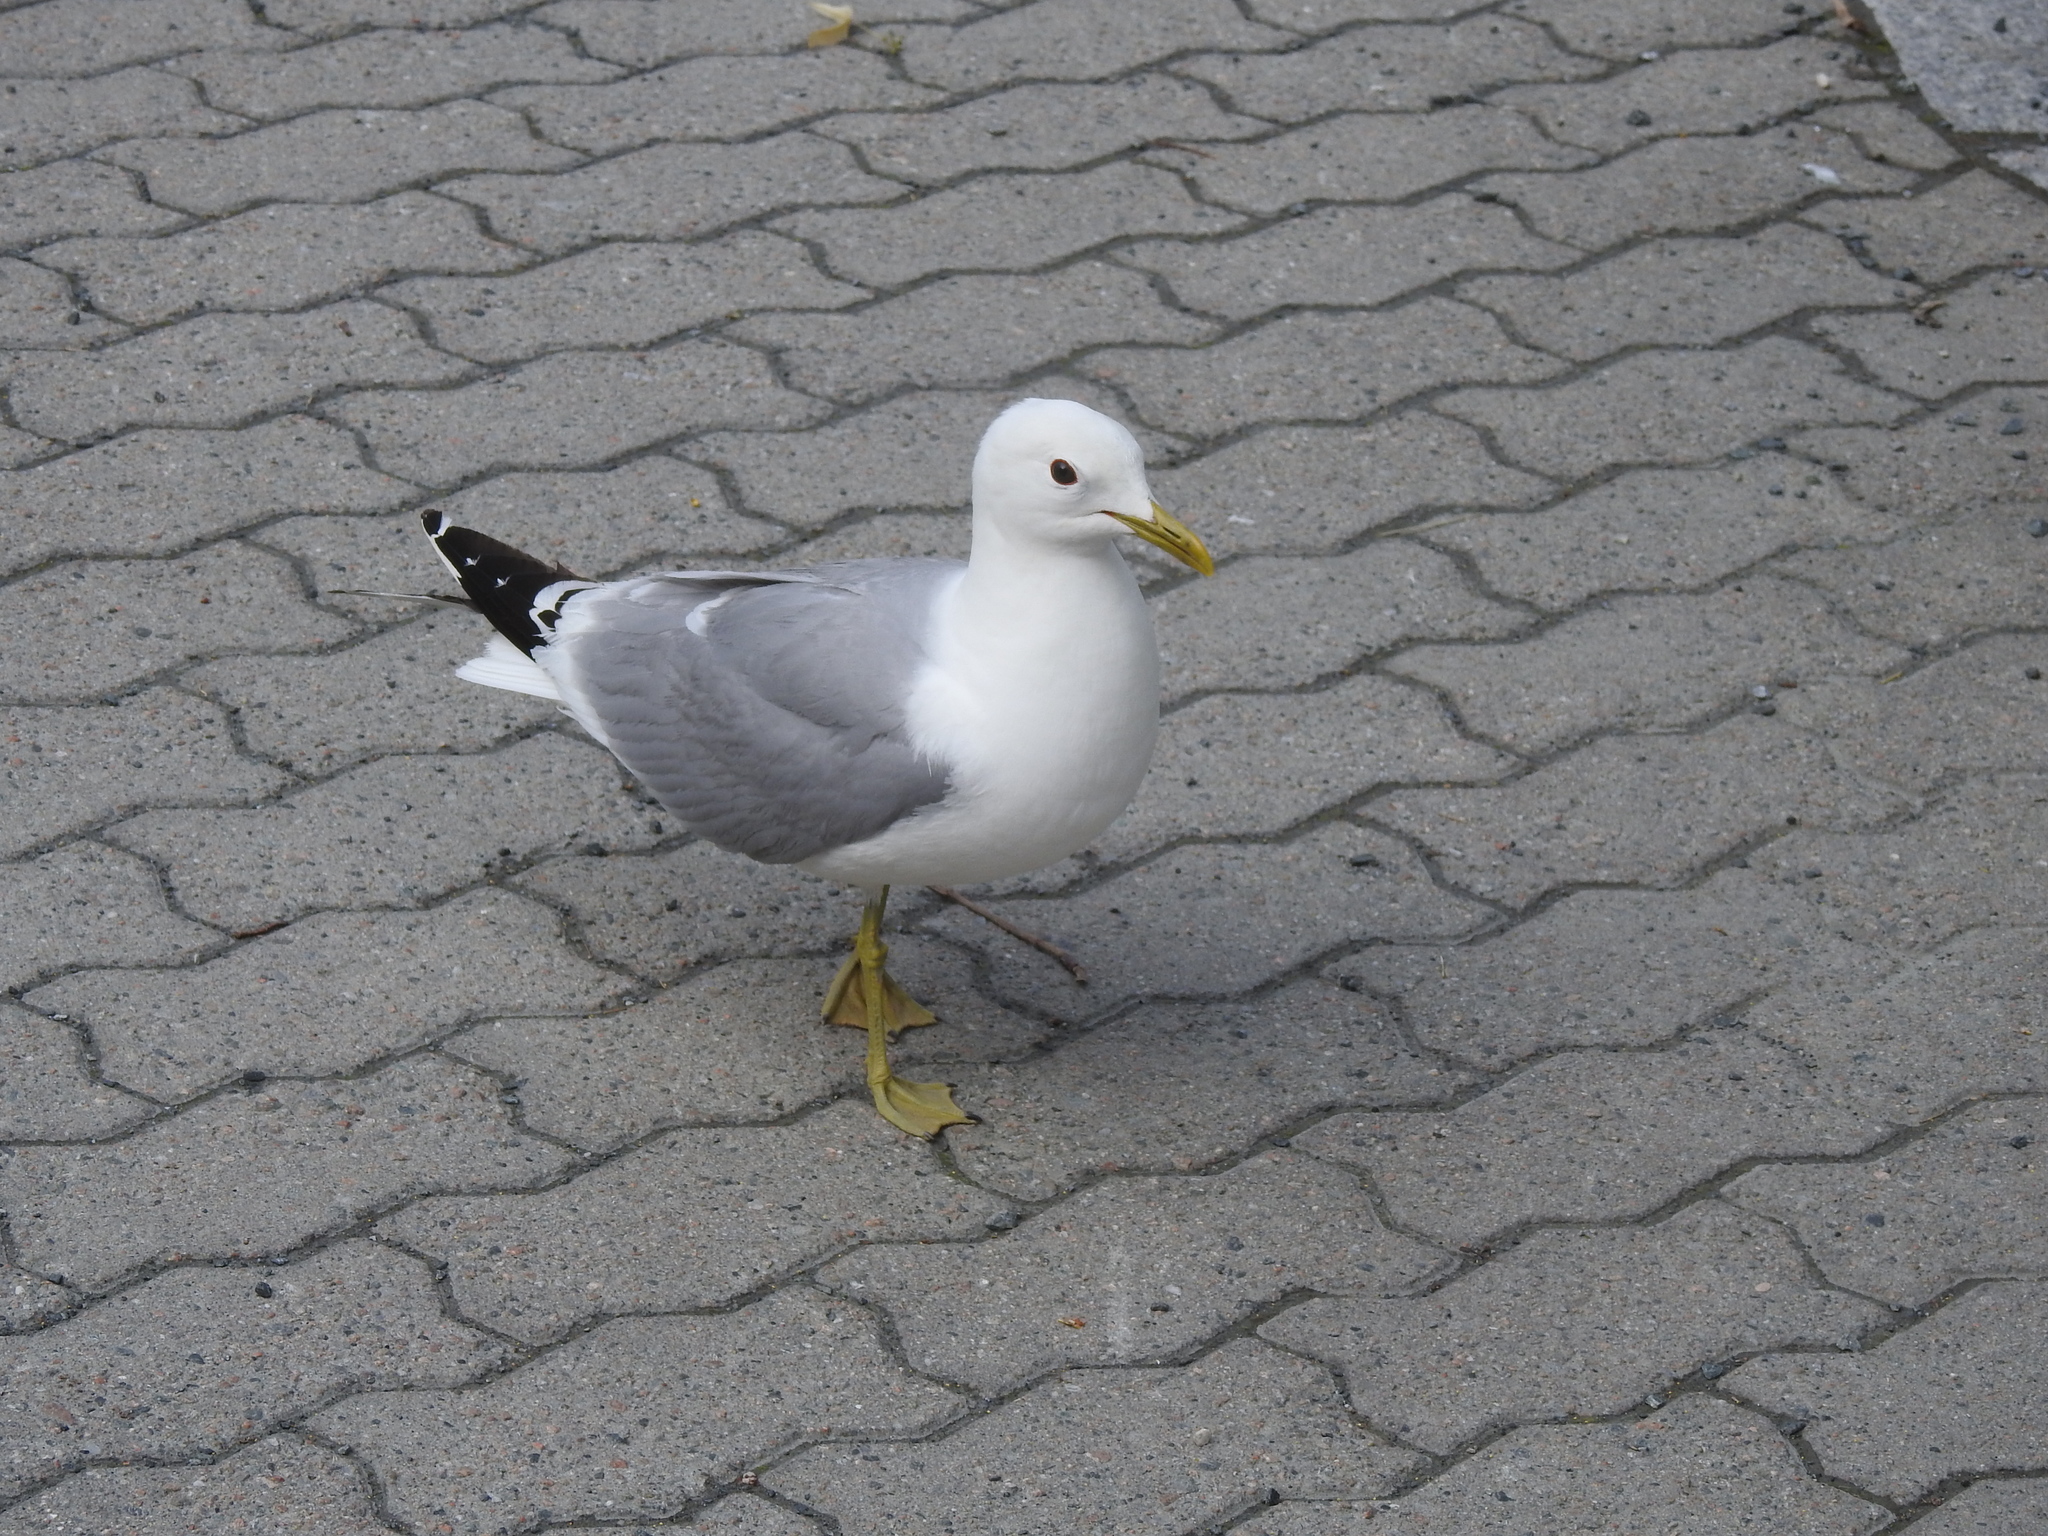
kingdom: Animalia
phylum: Chordata
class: Aves
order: Charadriiformes
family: Laridae
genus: Larus
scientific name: Larus canus
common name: Mew gull
